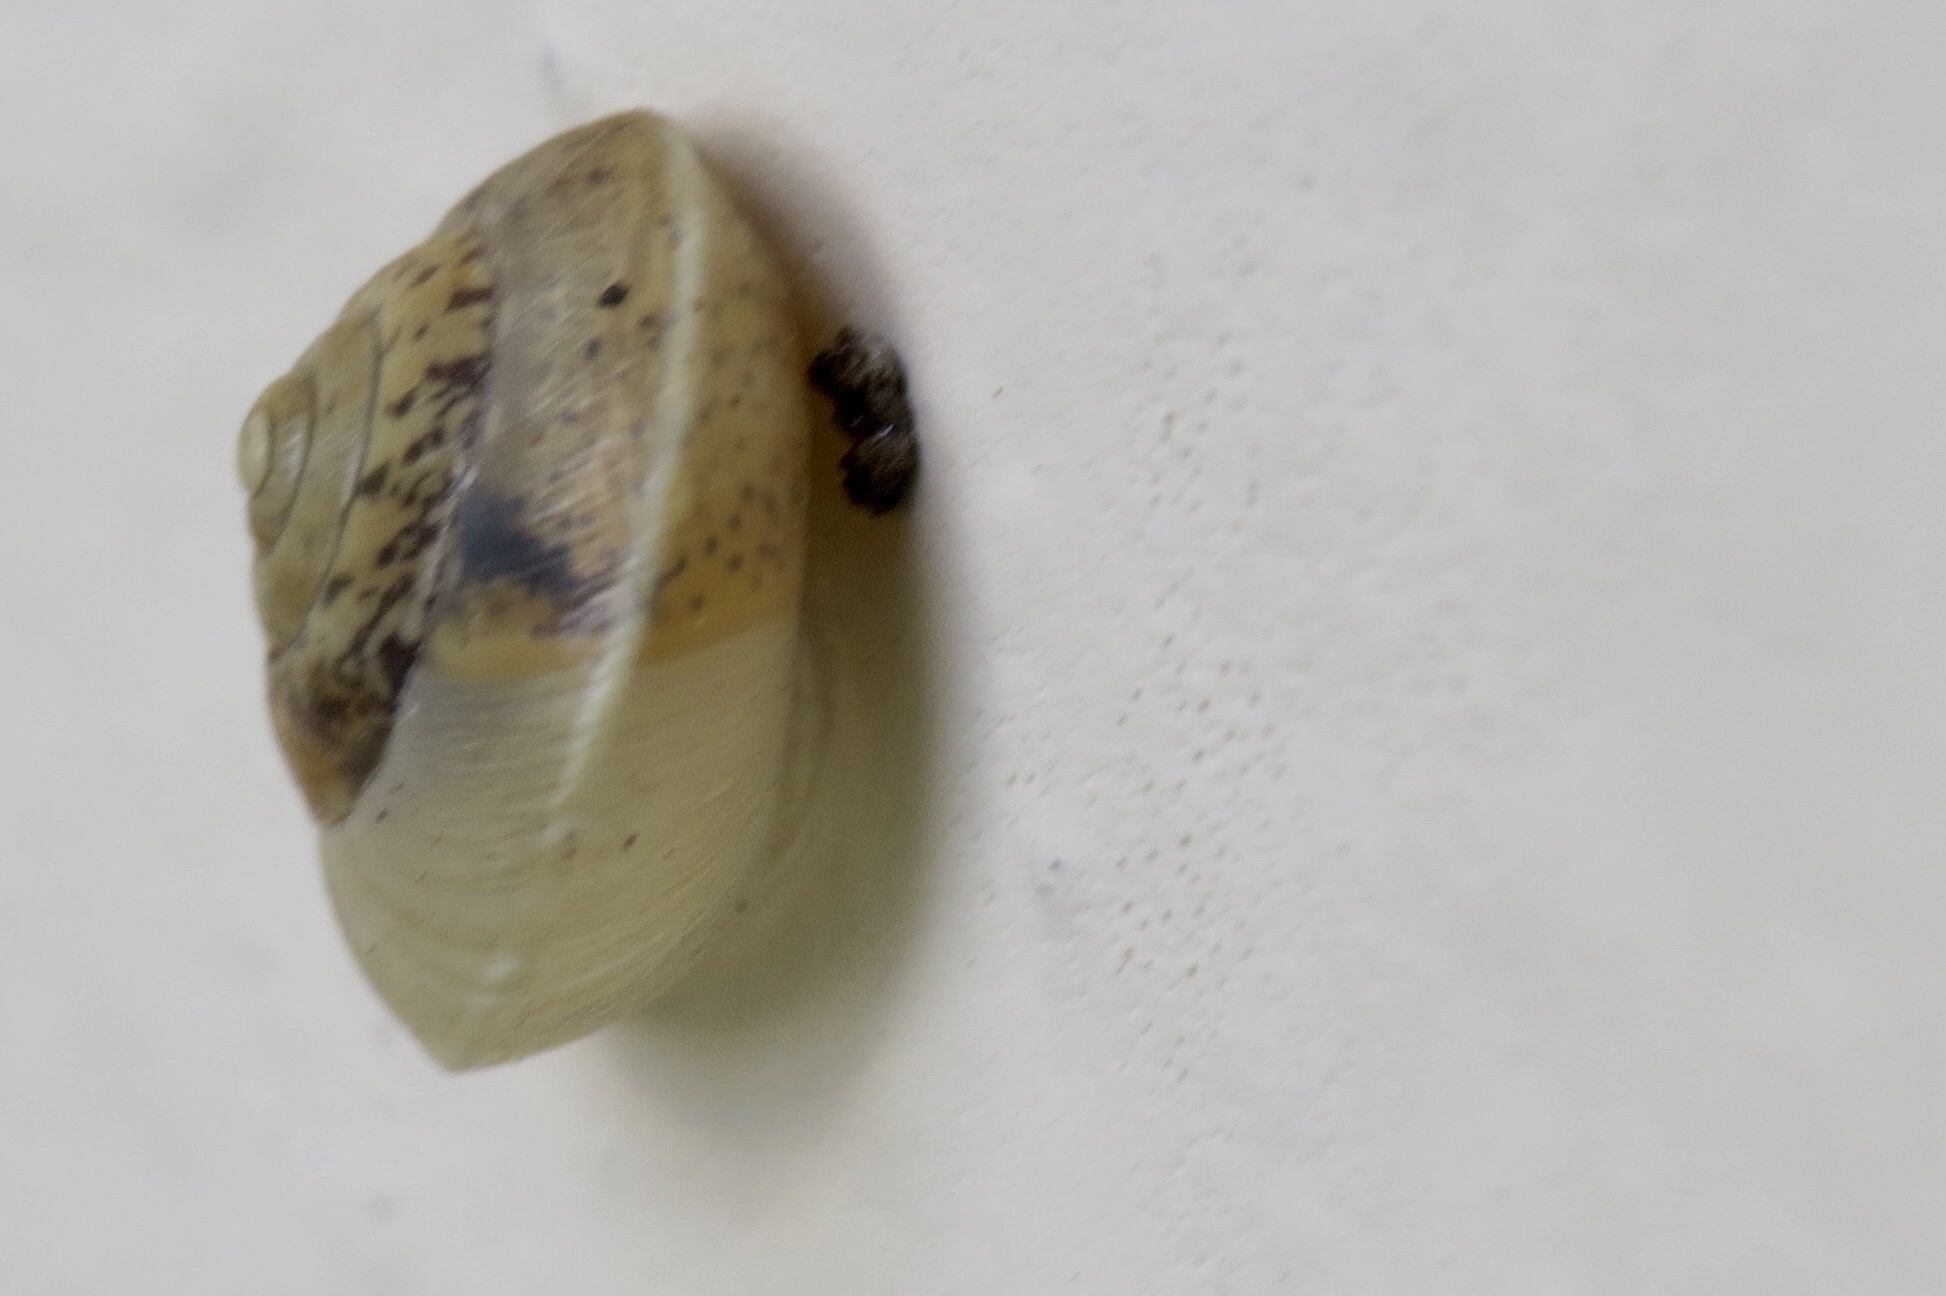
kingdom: Animalia
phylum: Mollusca
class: Gastropoda
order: Stylommatophora
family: Hygromiidae
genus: Hygromia
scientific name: Hygromia cinctella
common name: Girdled snail
